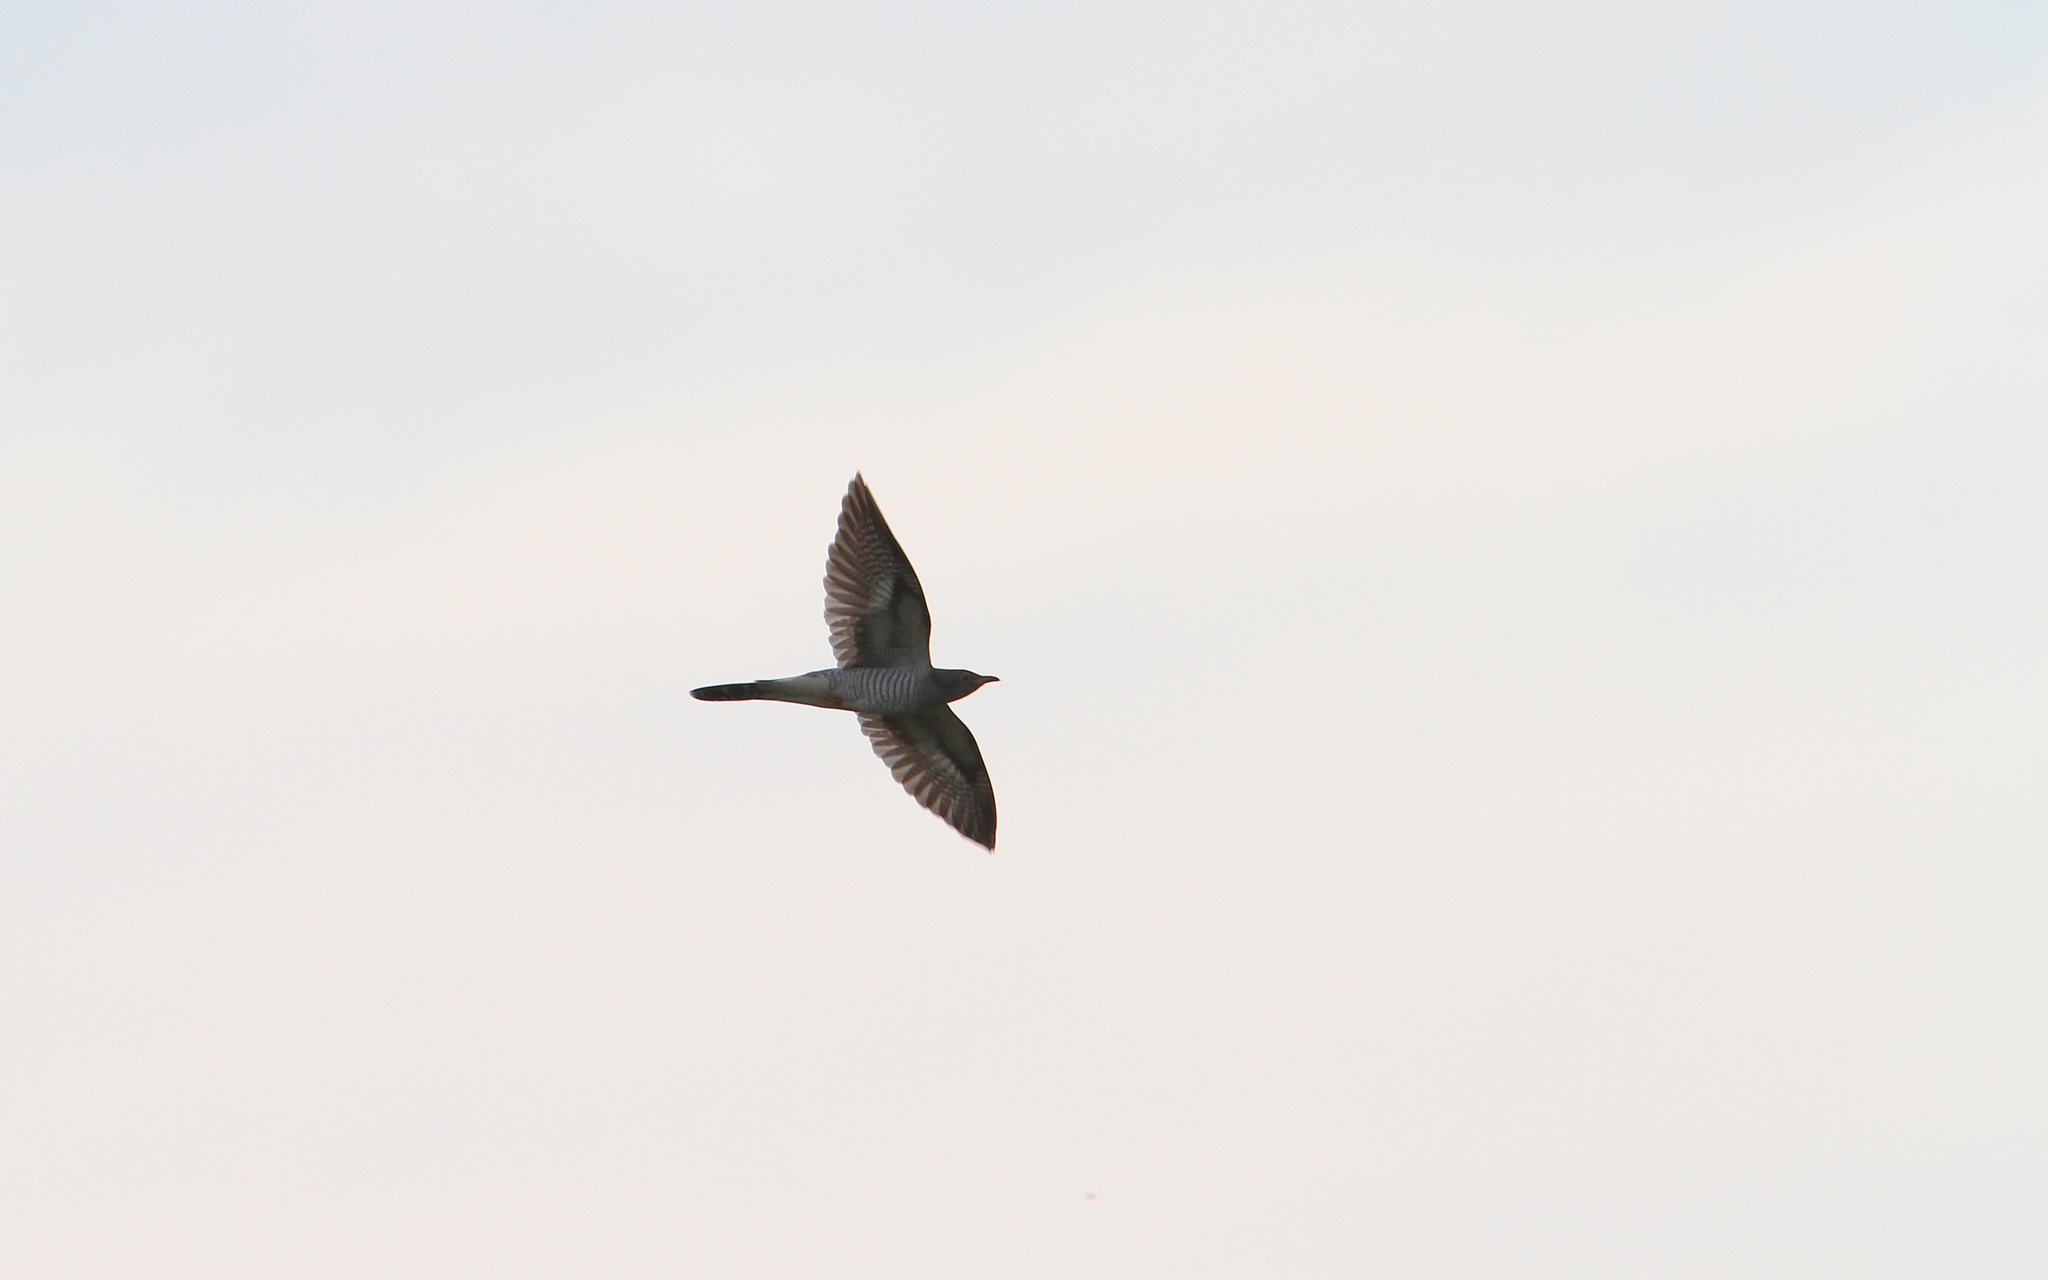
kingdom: Animalia
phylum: Chordata
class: Aves
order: Cuculiformes
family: Cuculidae
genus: Cuculus
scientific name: Cuculus micropterus
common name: Indian cuckoo
